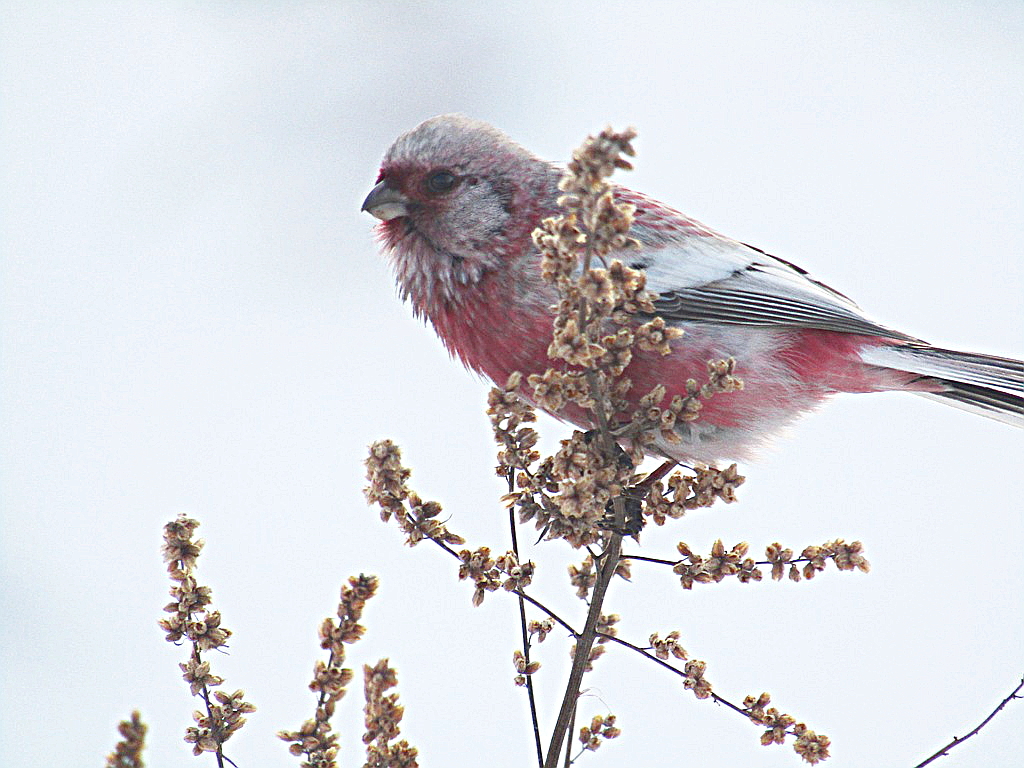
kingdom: Animalia
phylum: Chordata
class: Aves
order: Passeriformes
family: Fringillidae
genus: Carpodacus
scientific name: Carpodacus sibiricus
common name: Long-tailed rosefinch
